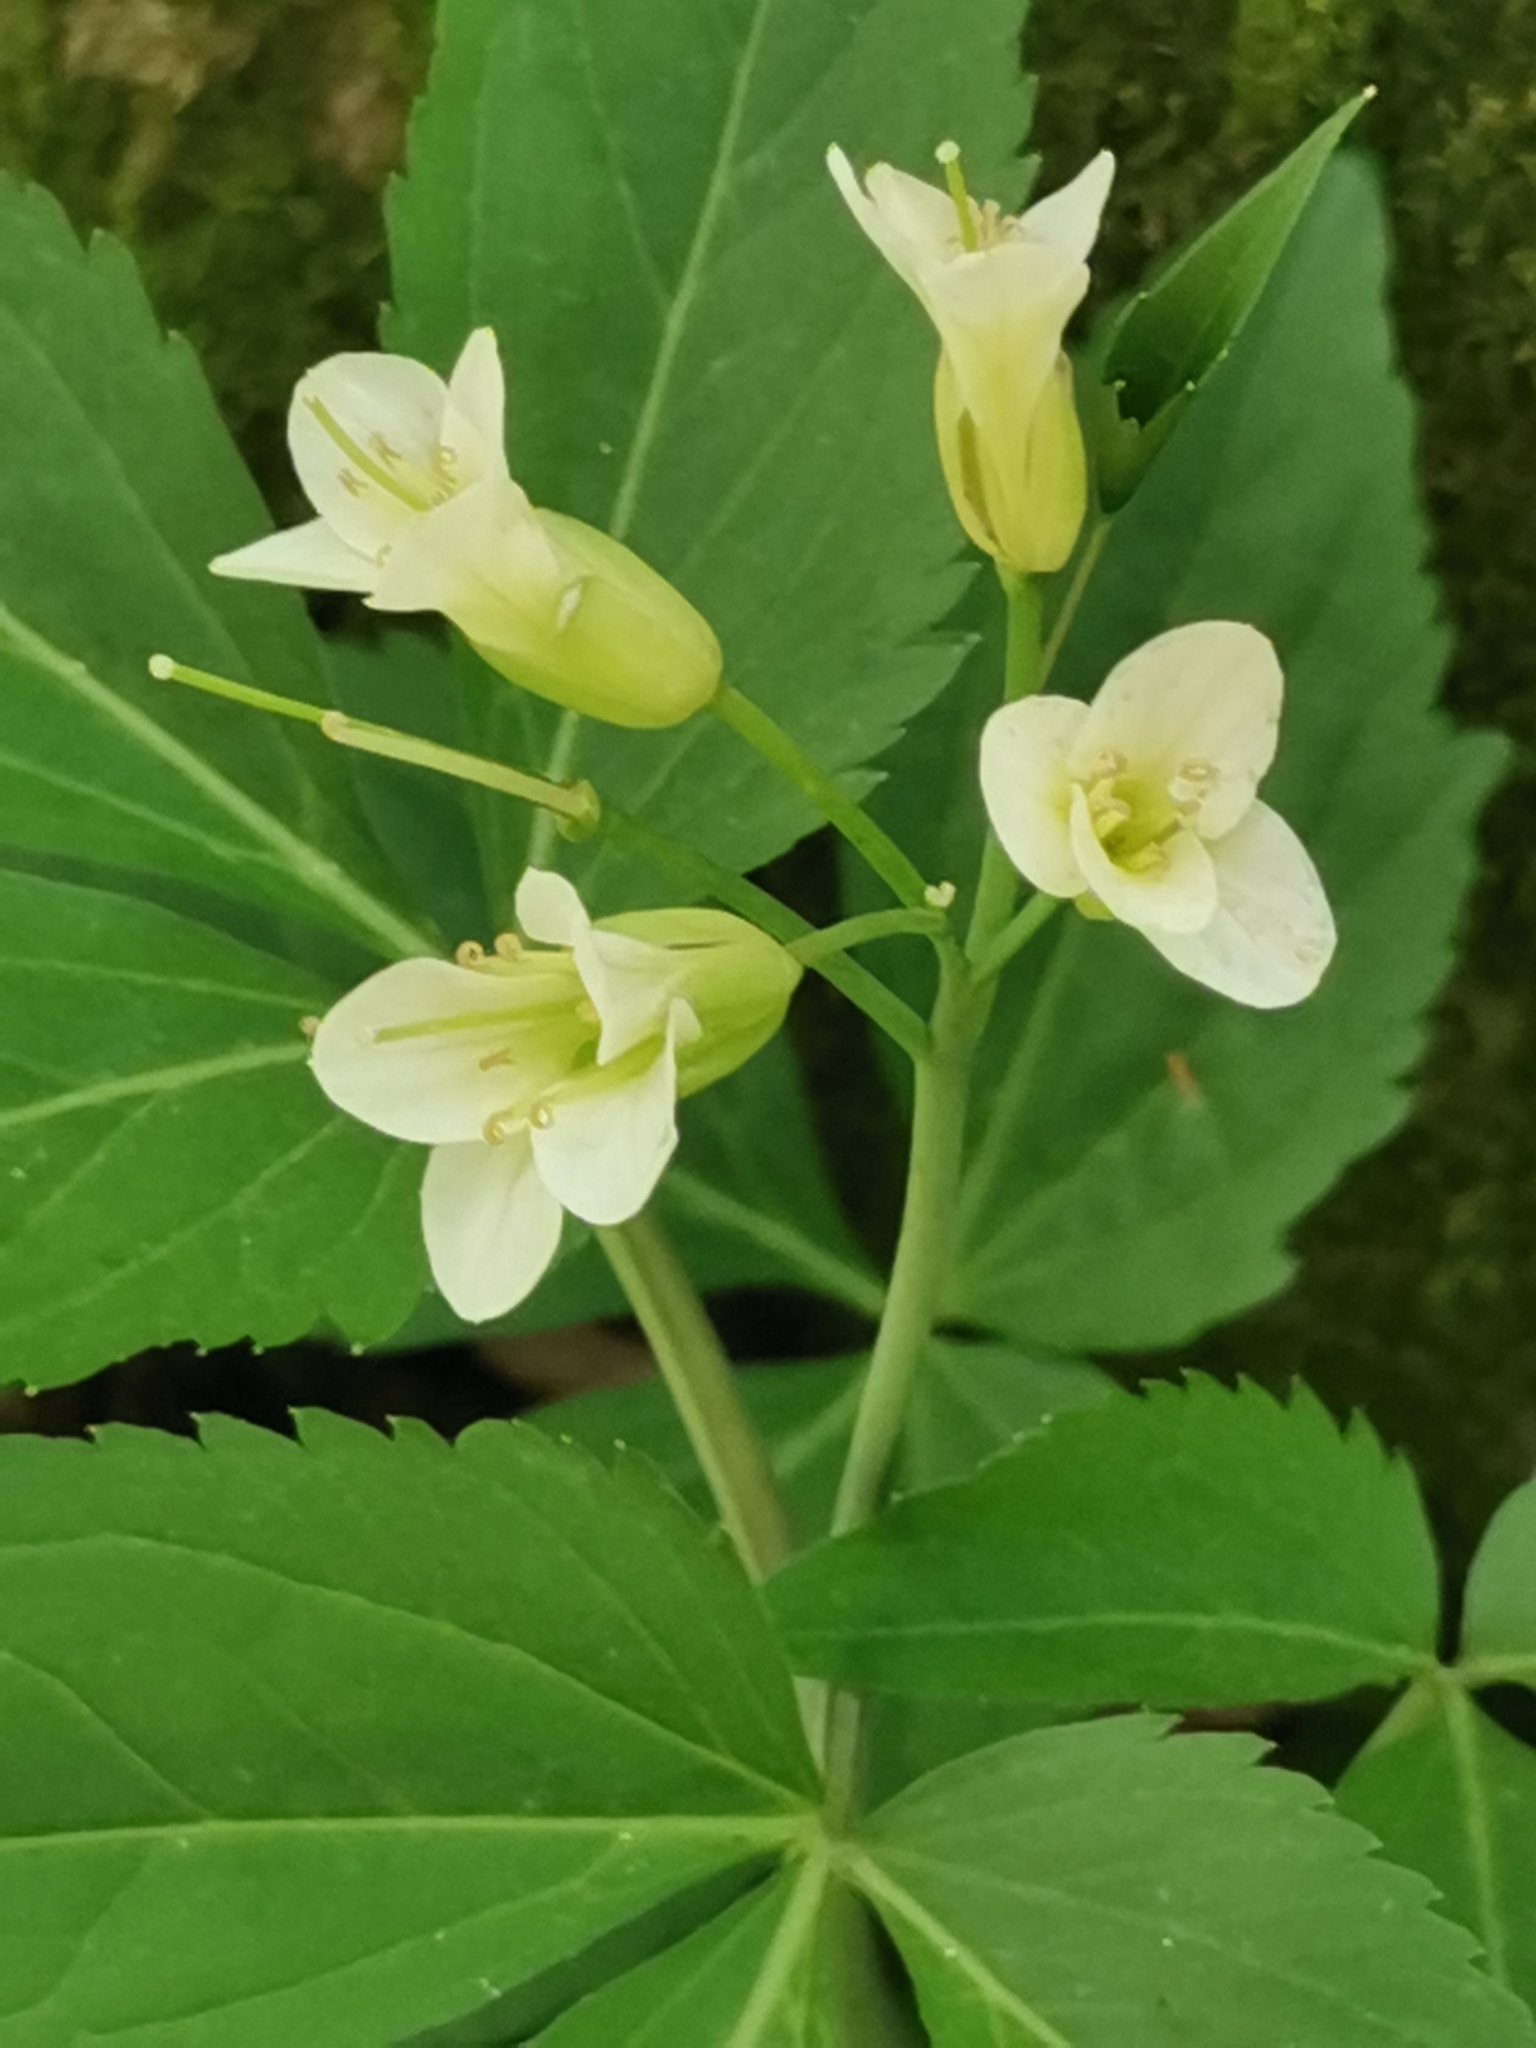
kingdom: Plantae
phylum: Tracheophyta
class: Magnoliopsida
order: Brassicales
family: Brassicaceae
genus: Cardamine
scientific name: Cardamine enneaphyllos
